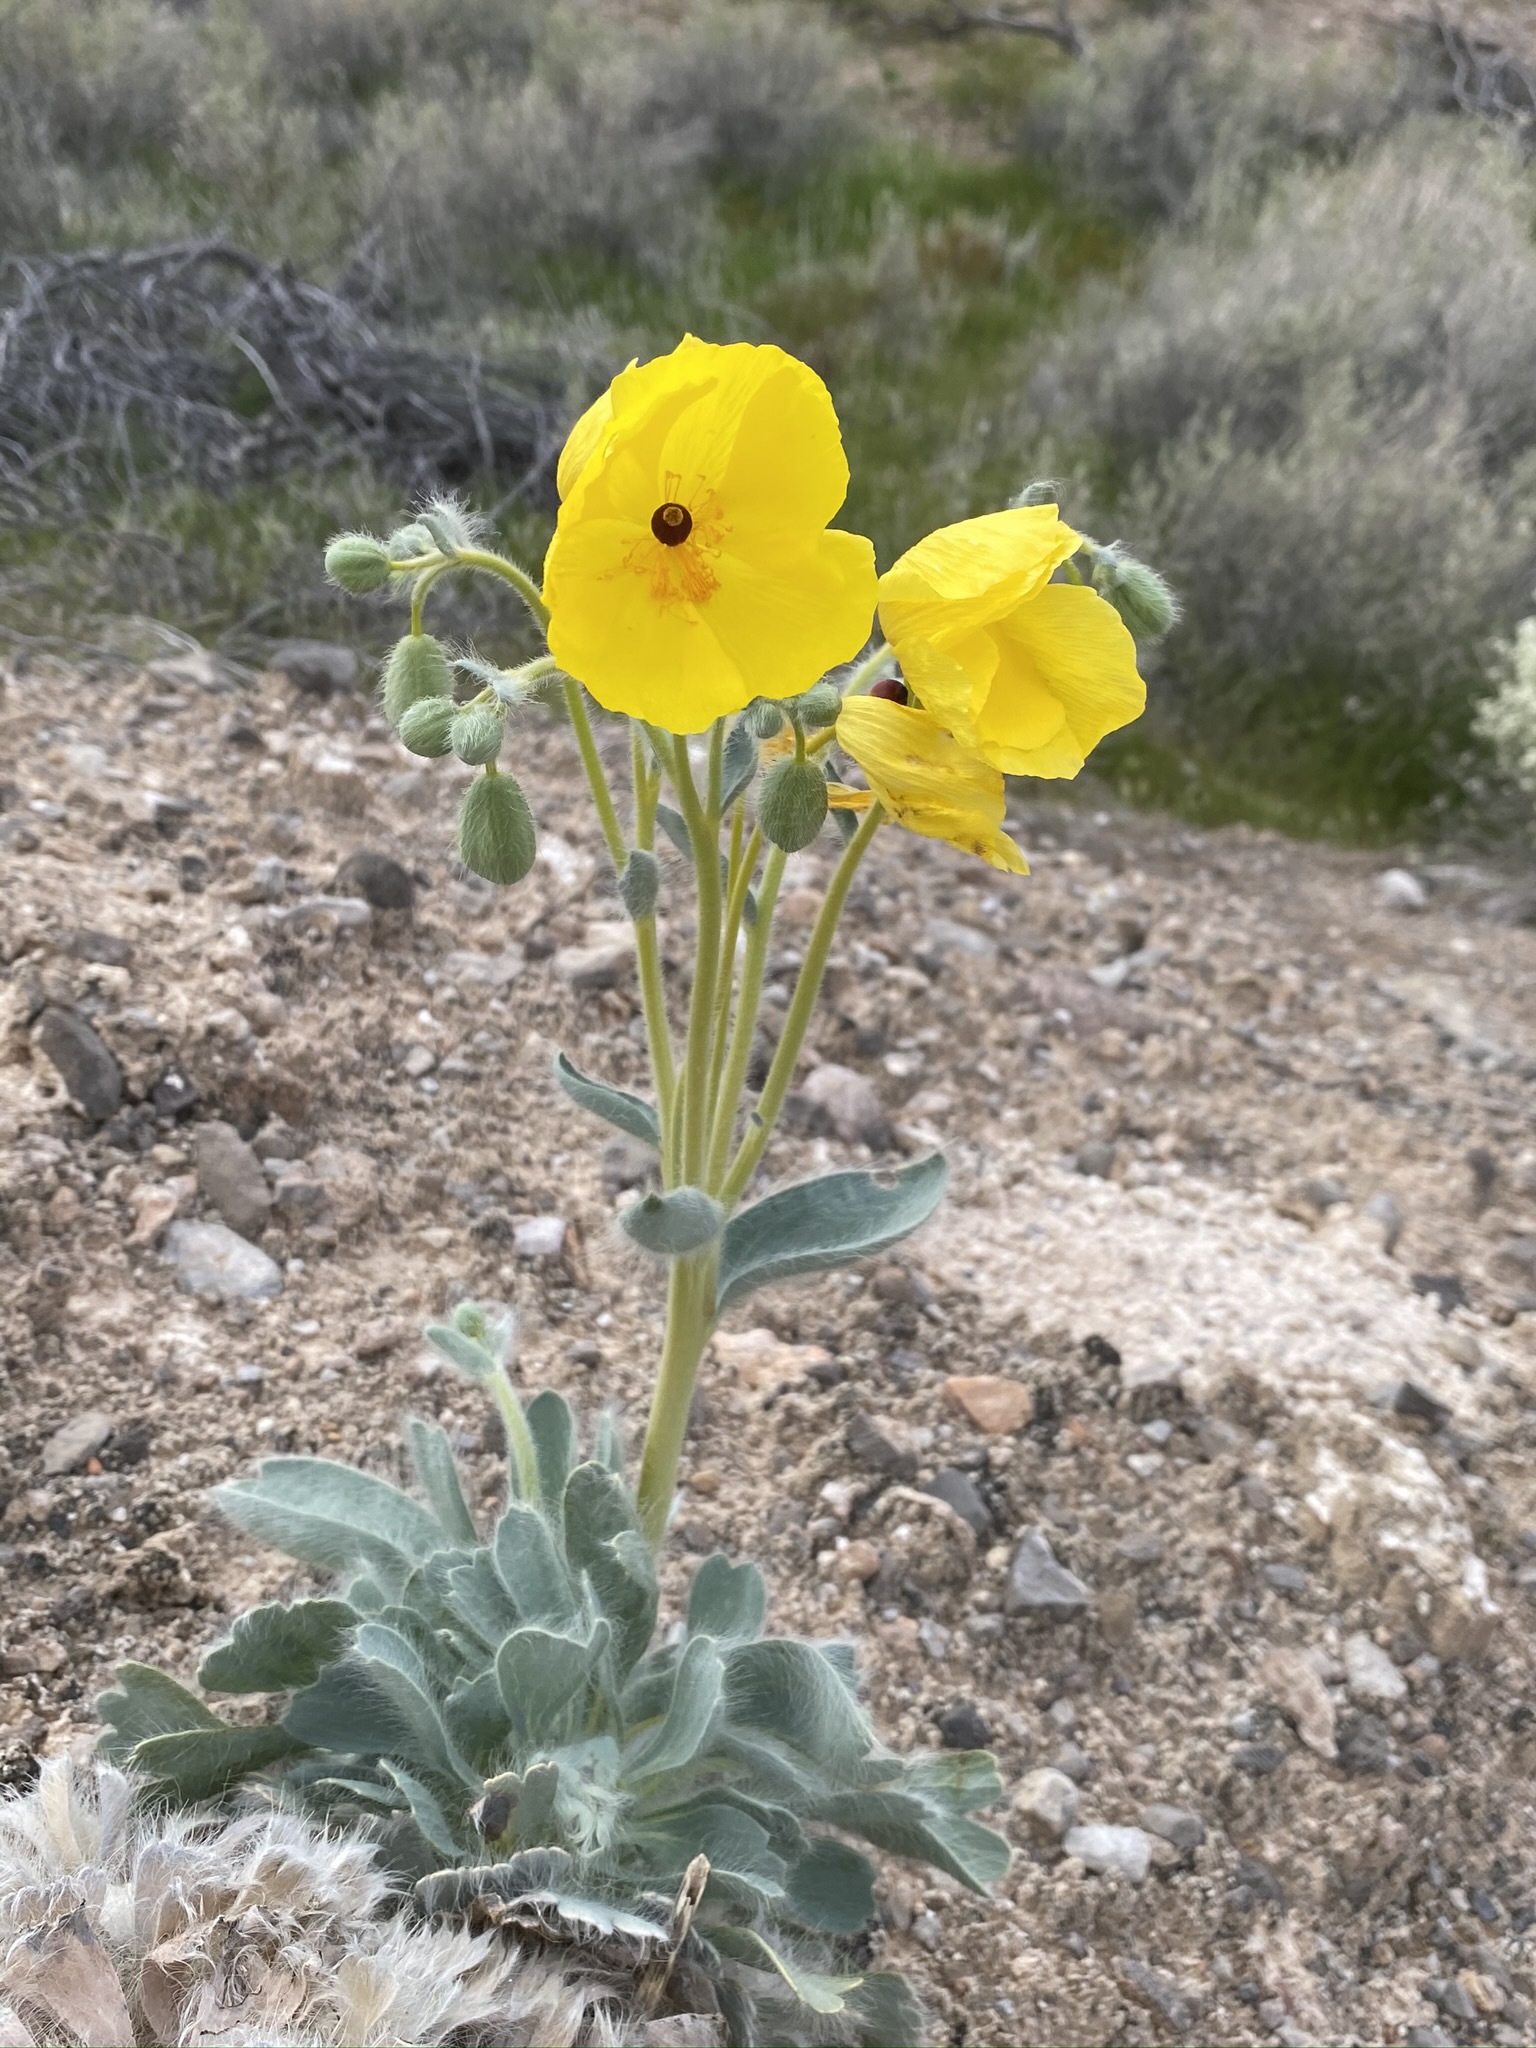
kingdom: Plantae
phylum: Tracheophyta
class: Magnoliopsida
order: Ranunculales
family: Papaveraceae
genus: Arctomecon
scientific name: Arctomecon californicum
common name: Golden bearclaw-poppy
